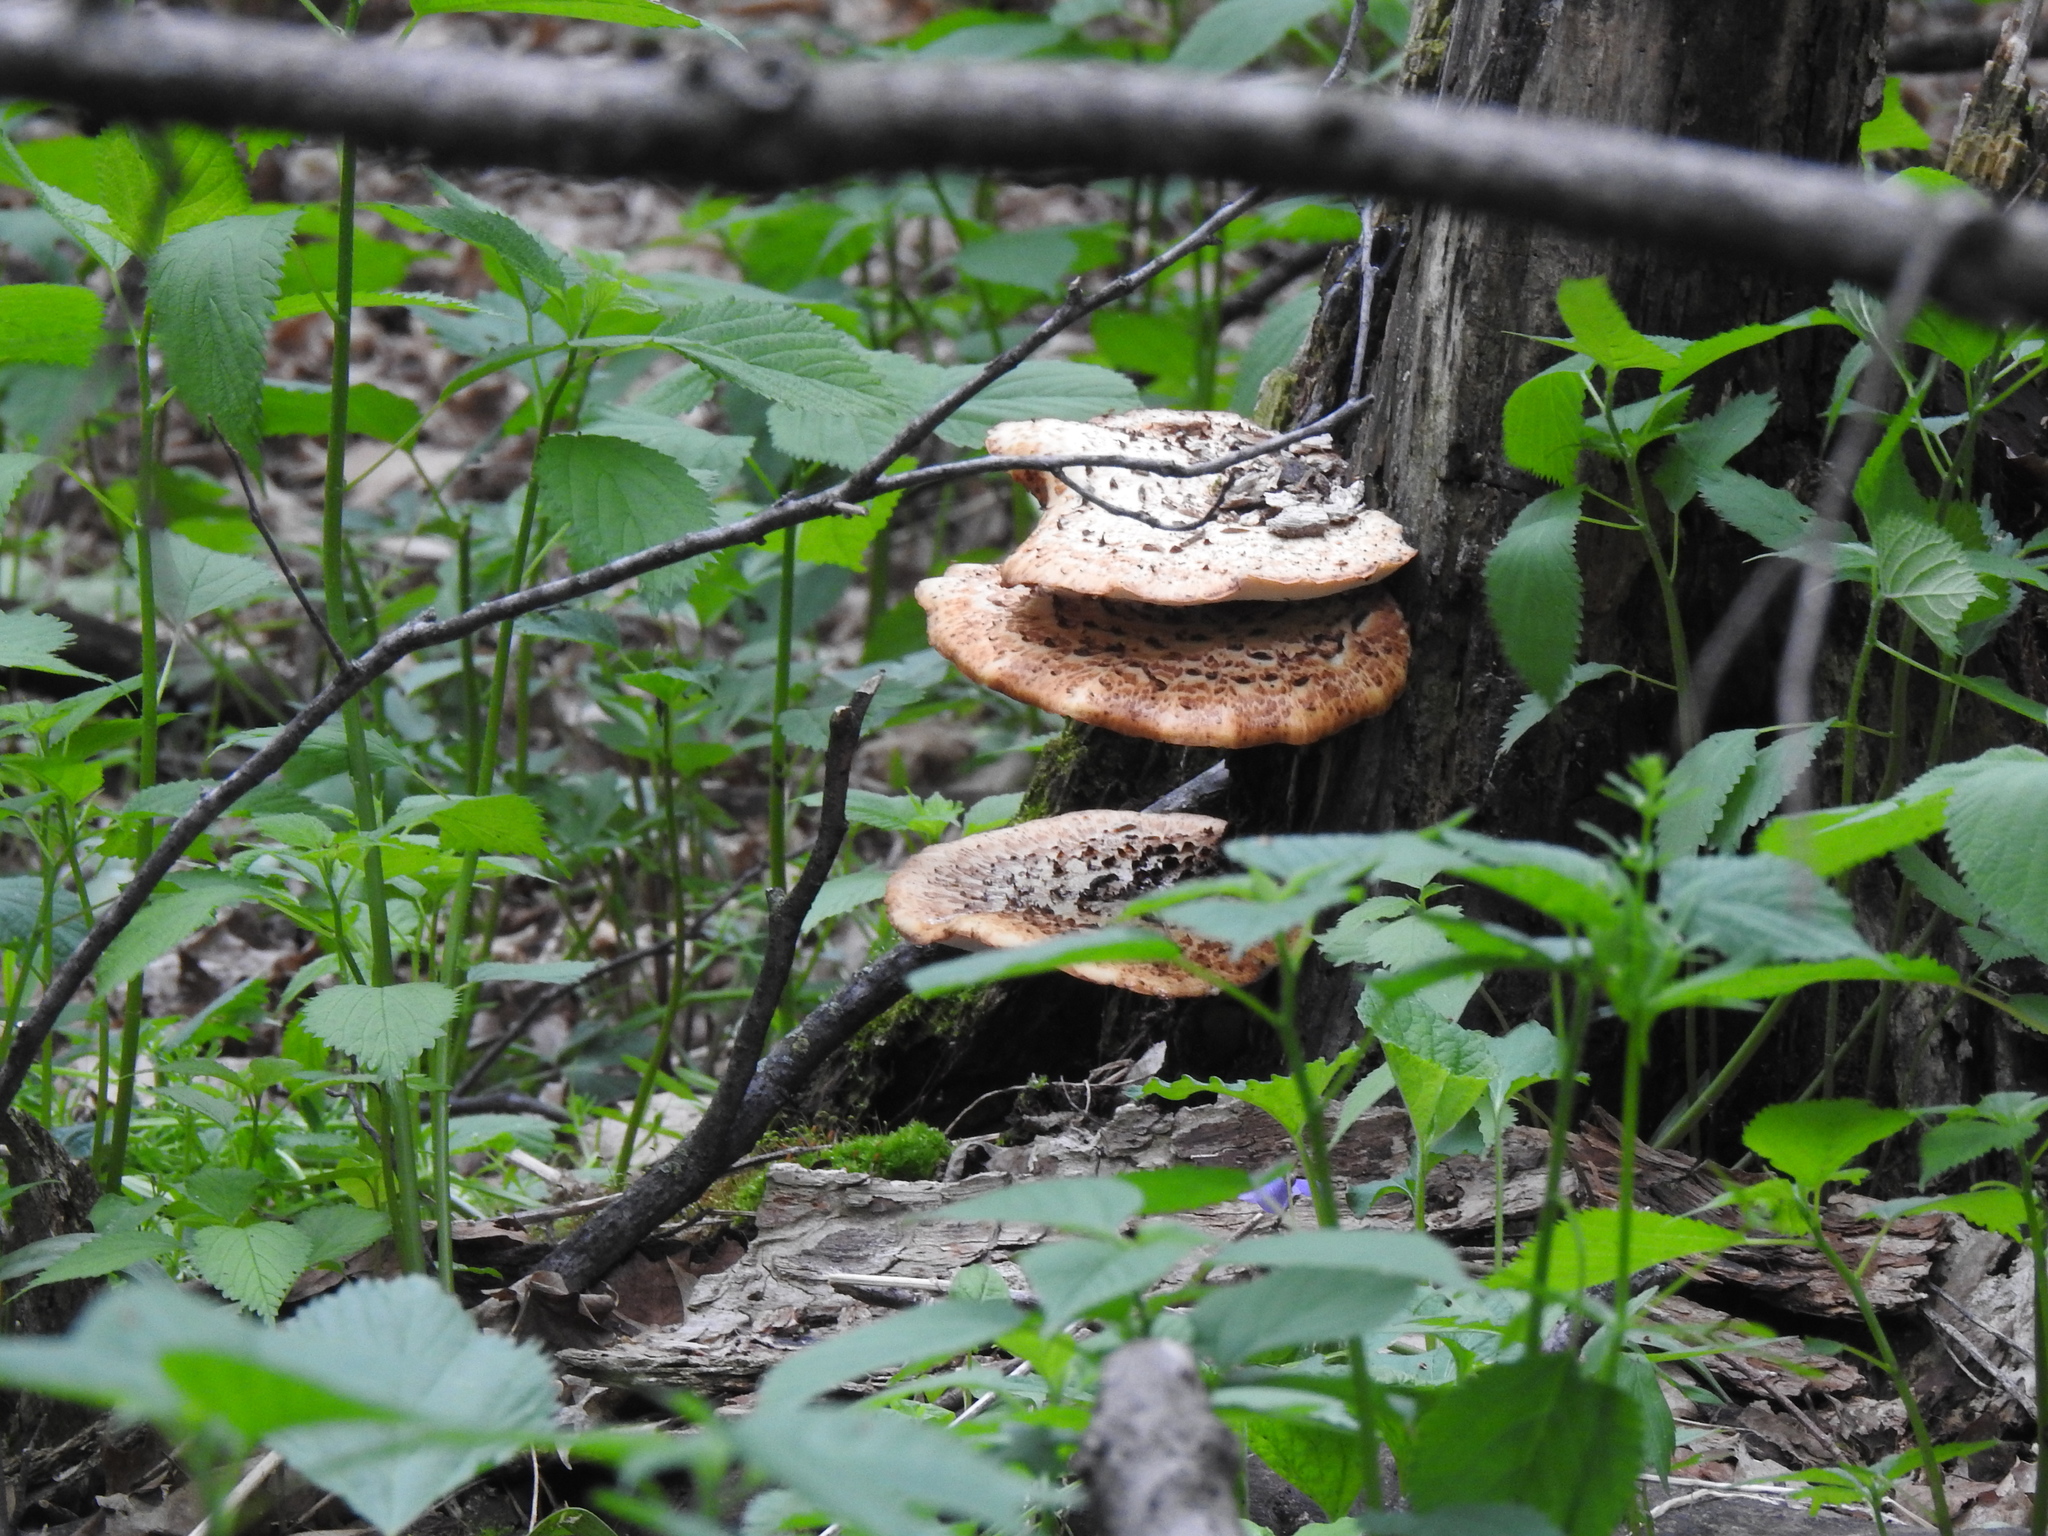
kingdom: Fungi
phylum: Basidiomycota
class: Agaricomycetes
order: Polyporales
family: Polyporaceae
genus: Cerioporus
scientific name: Cerioporus squamosus
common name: Dryad's saddle
